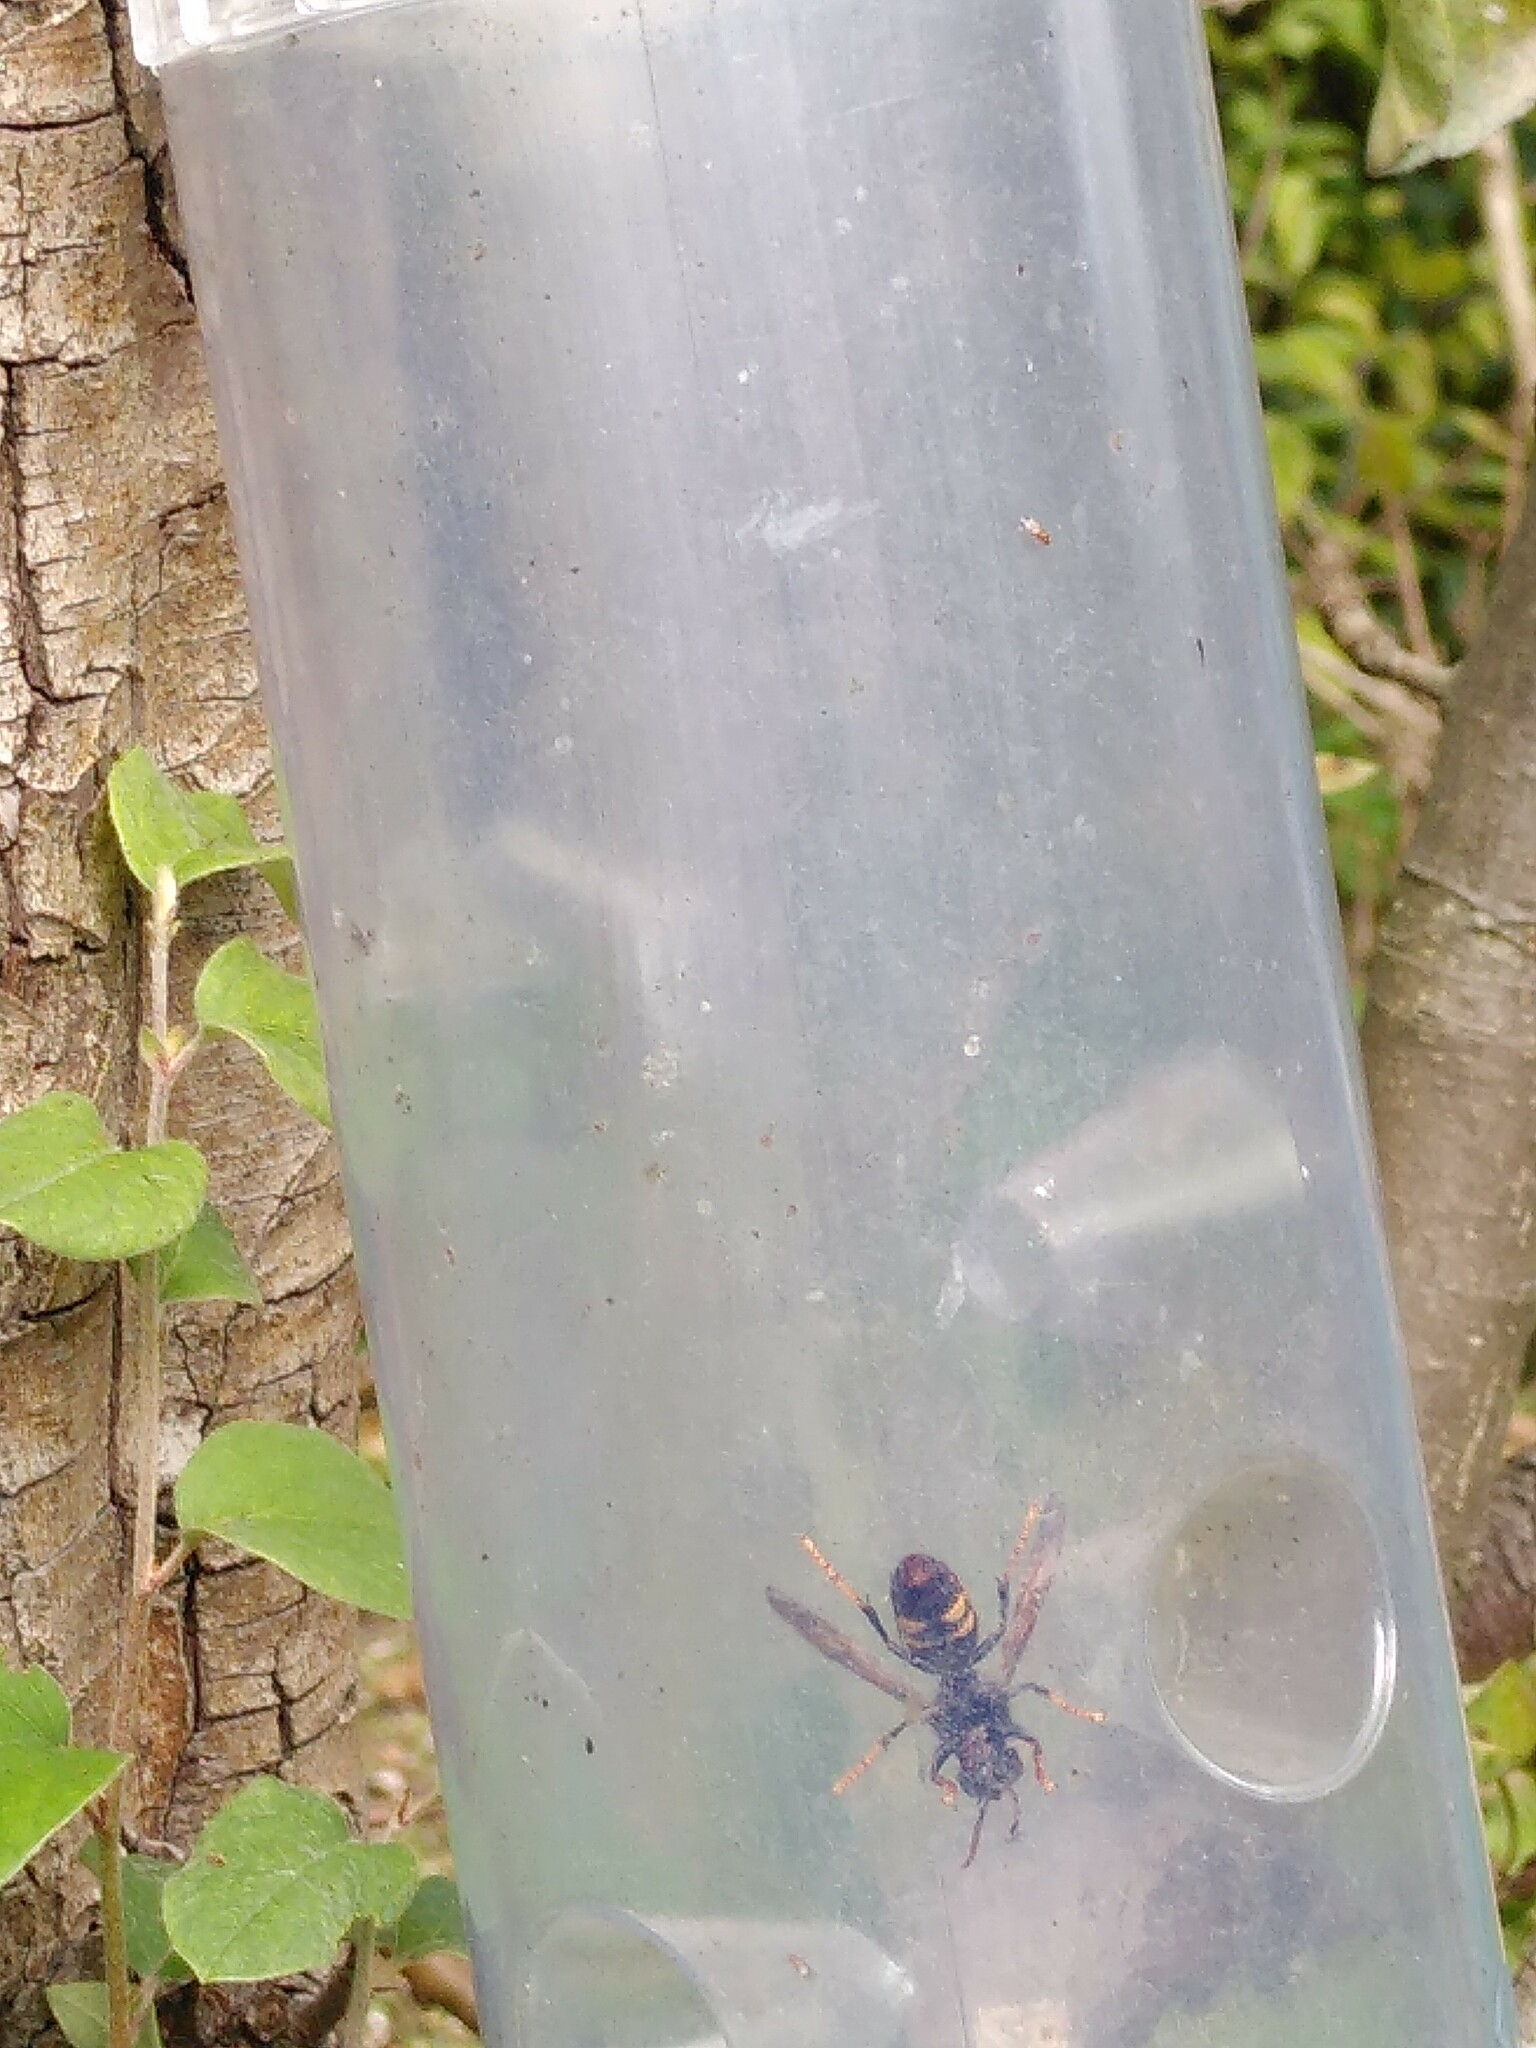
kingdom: Animalia
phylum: Arthropoda
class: Insecta
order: Hymenoptera
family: Vespidae
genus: Vespa
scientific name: Vespa velutina
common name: Asian hornet
